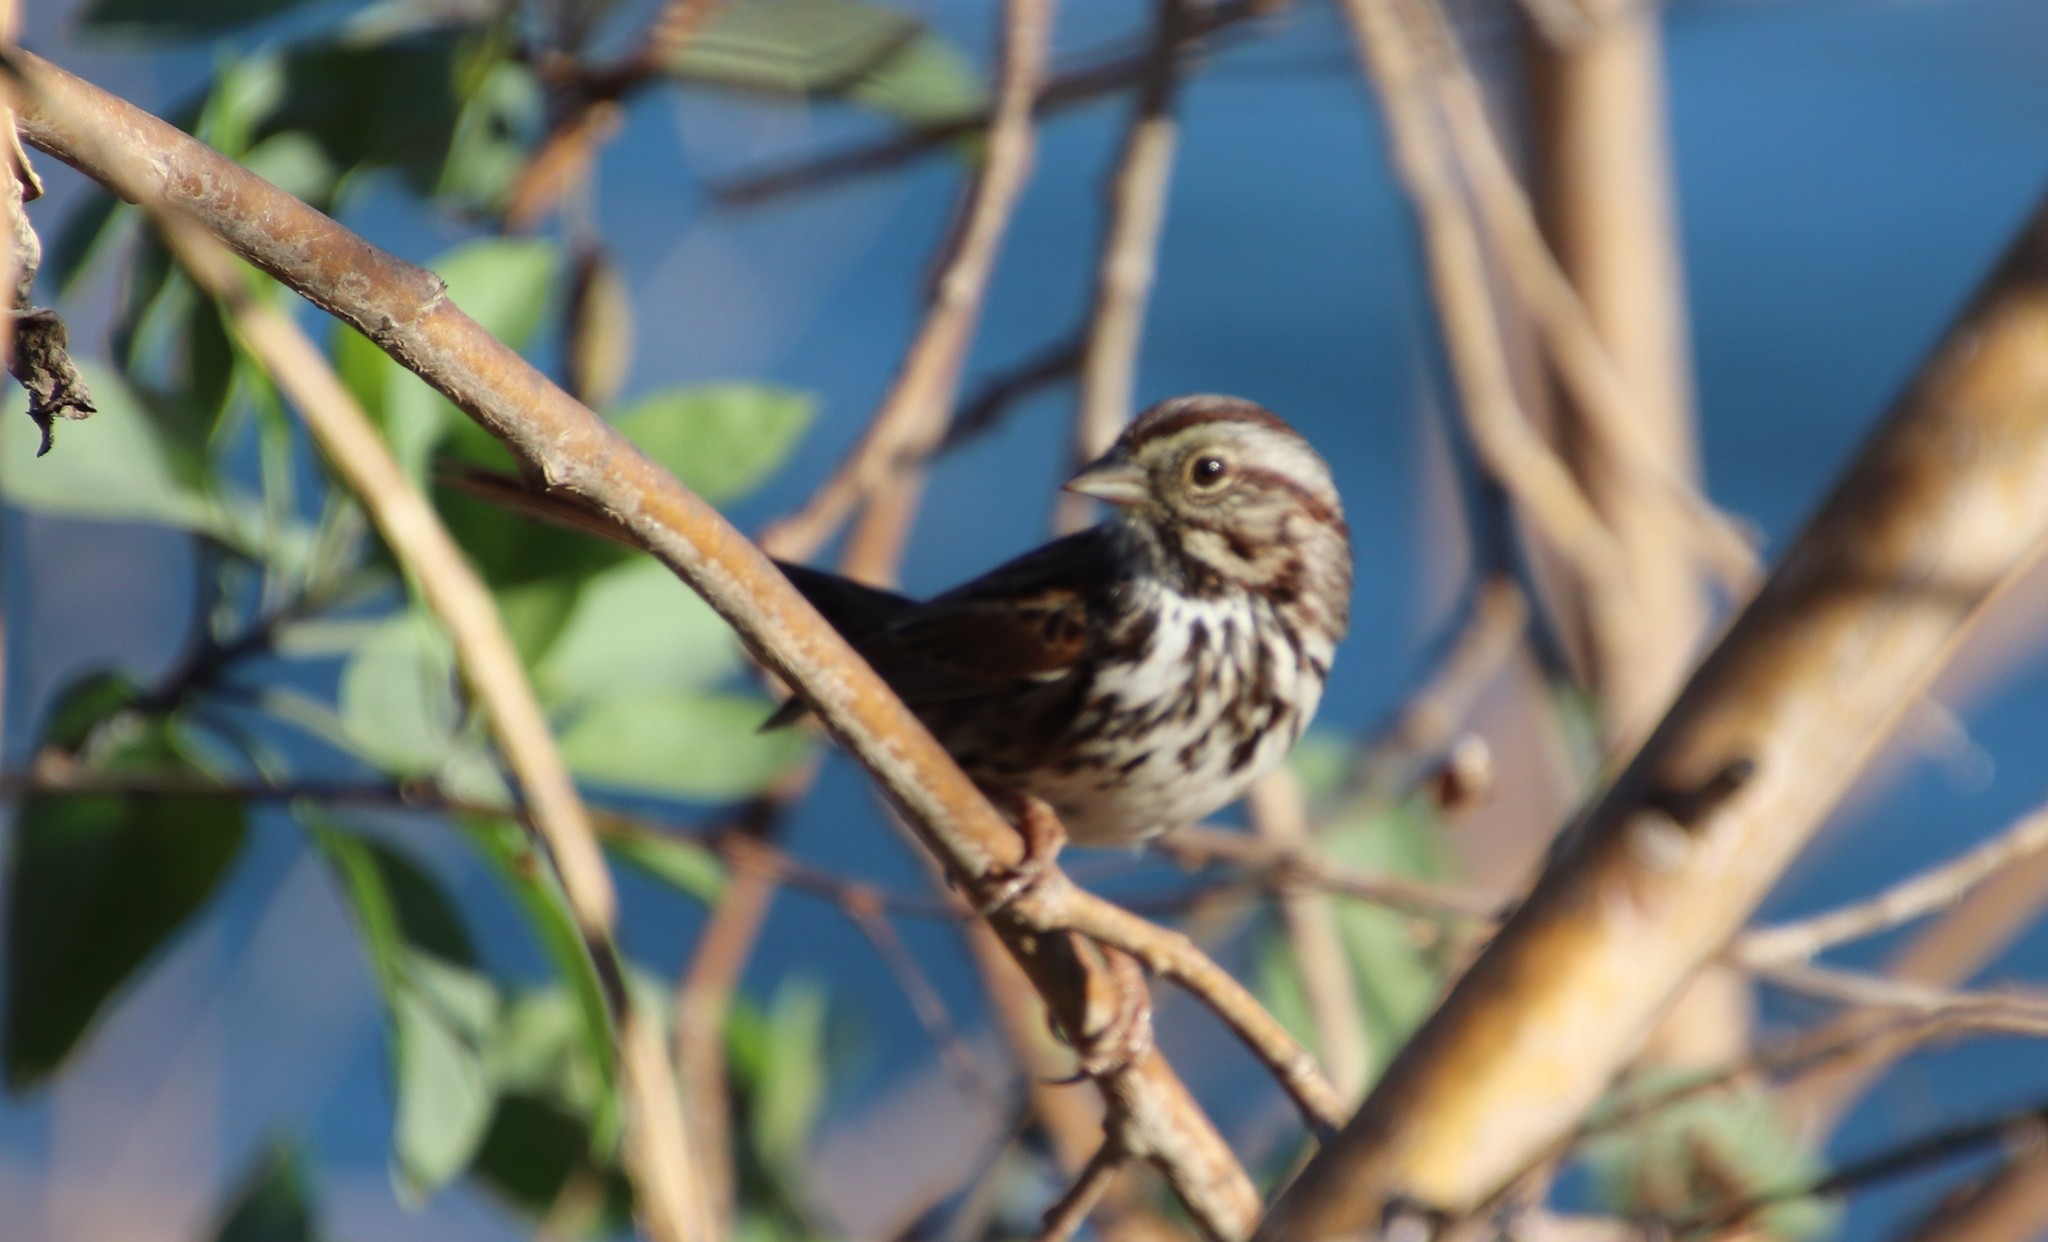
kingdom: Animalia
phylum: Chordata
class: Aves
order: Passeriformes
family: Passerellidae
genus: Melospiza
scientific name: Melospiza melodia
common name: Song sparrow
